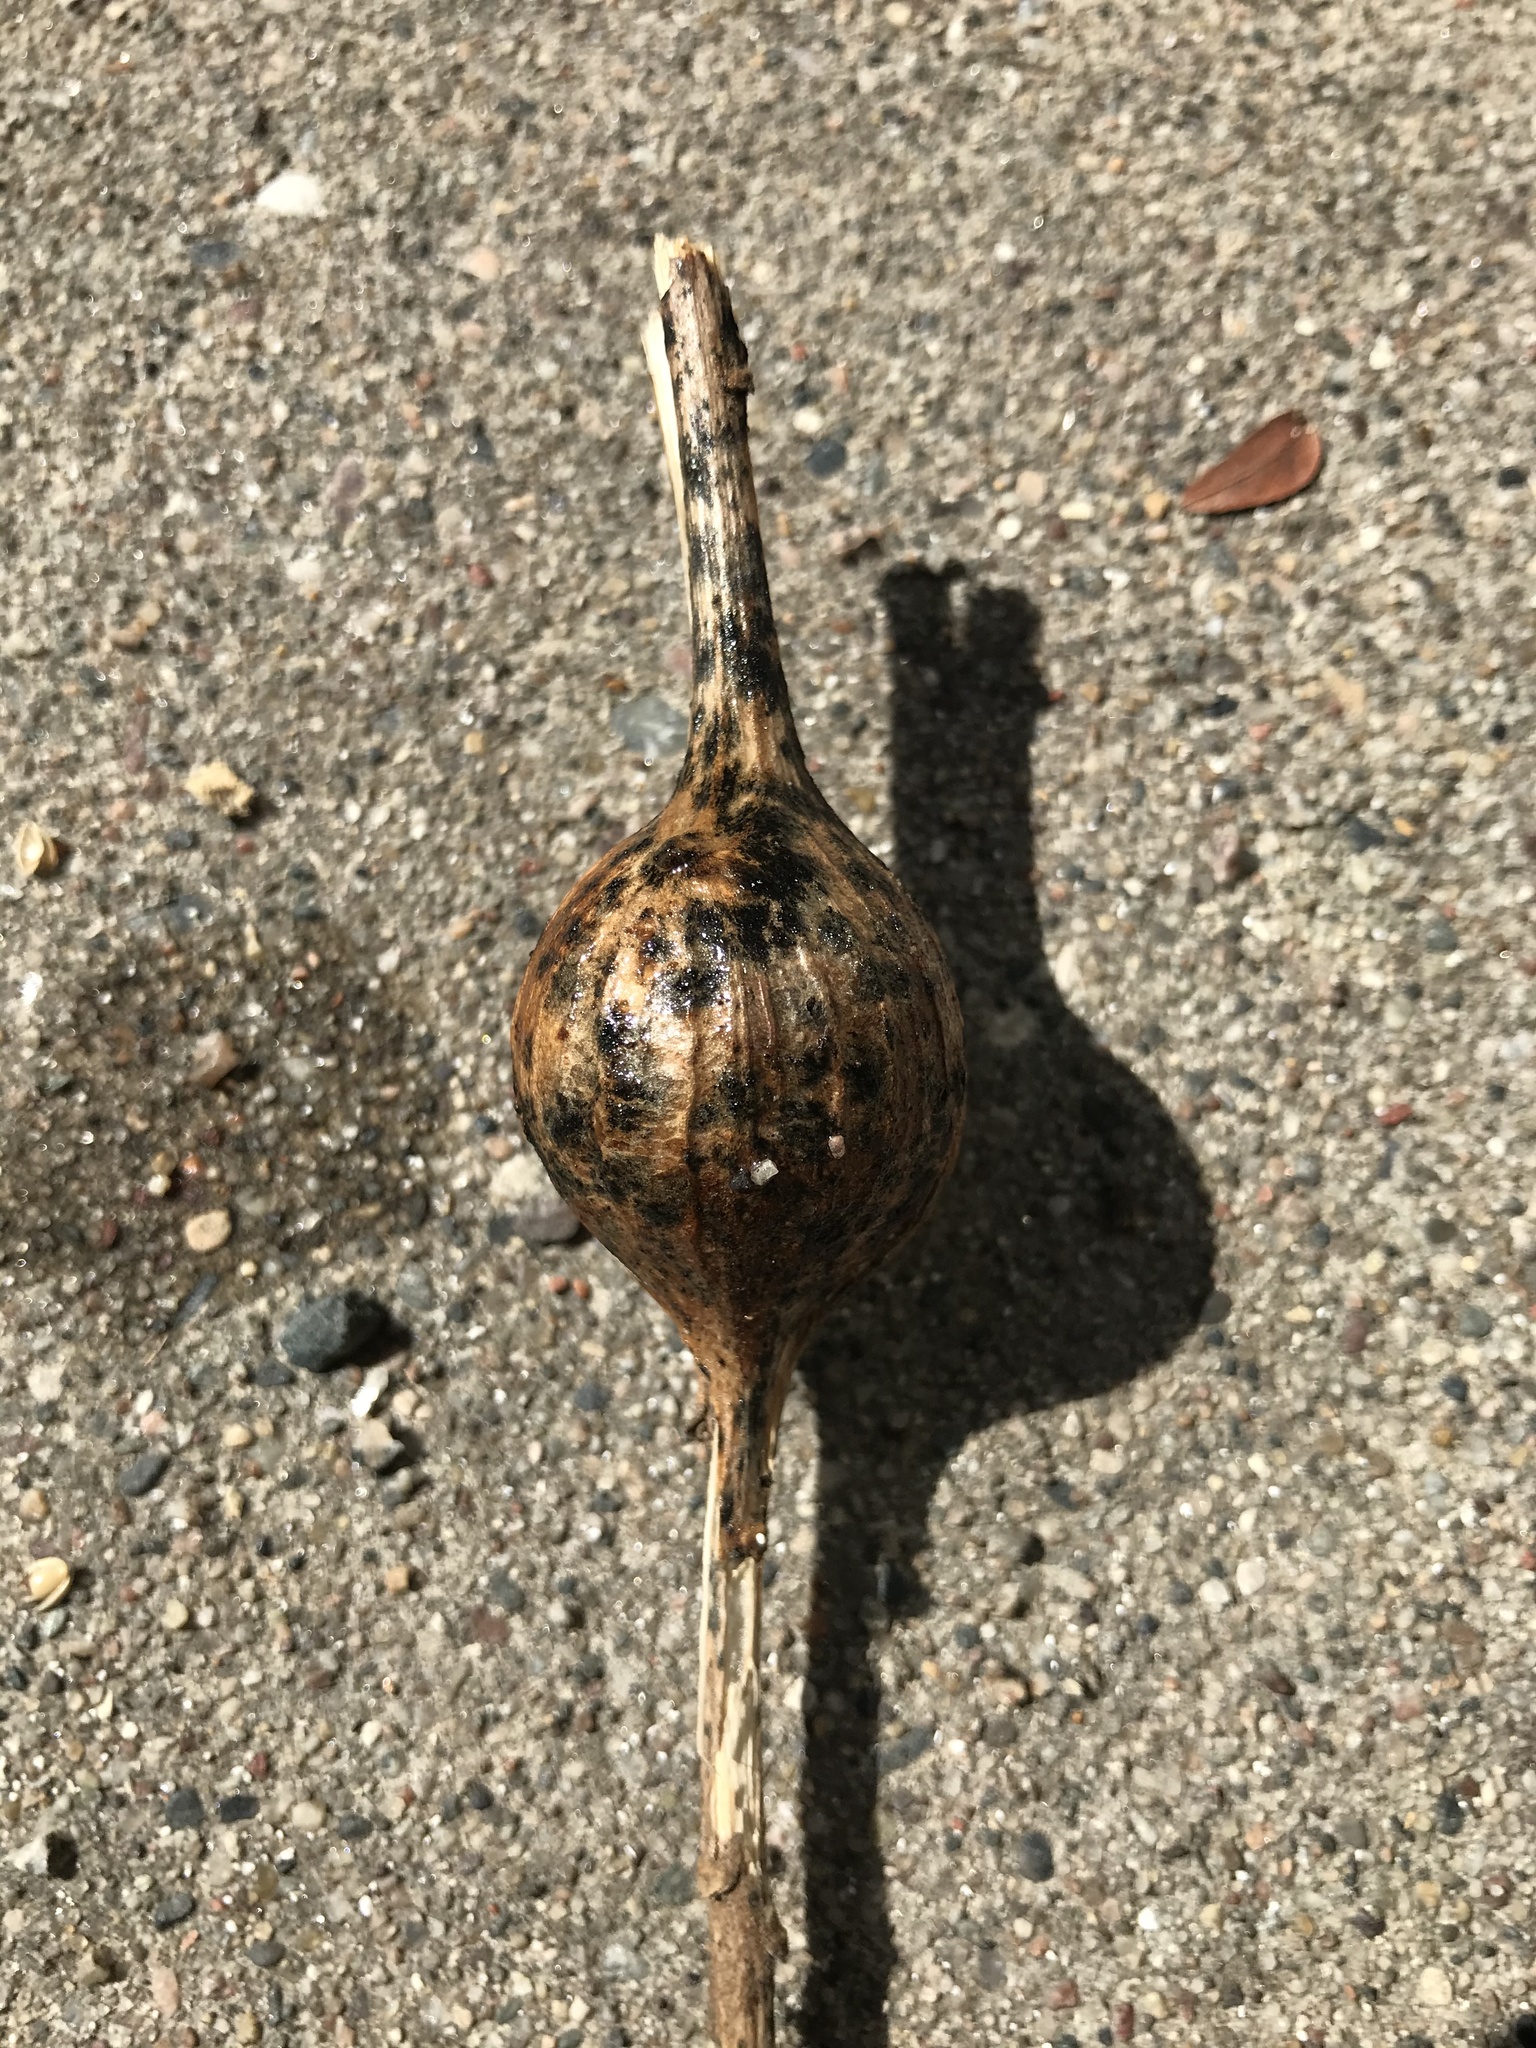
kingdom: Animalia
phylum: Arthropoda
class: Insecta
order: Diptera
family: Tephritidae
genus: Eurosta
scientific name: Eurosta solidaginis
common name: Goldenrod gall fly
